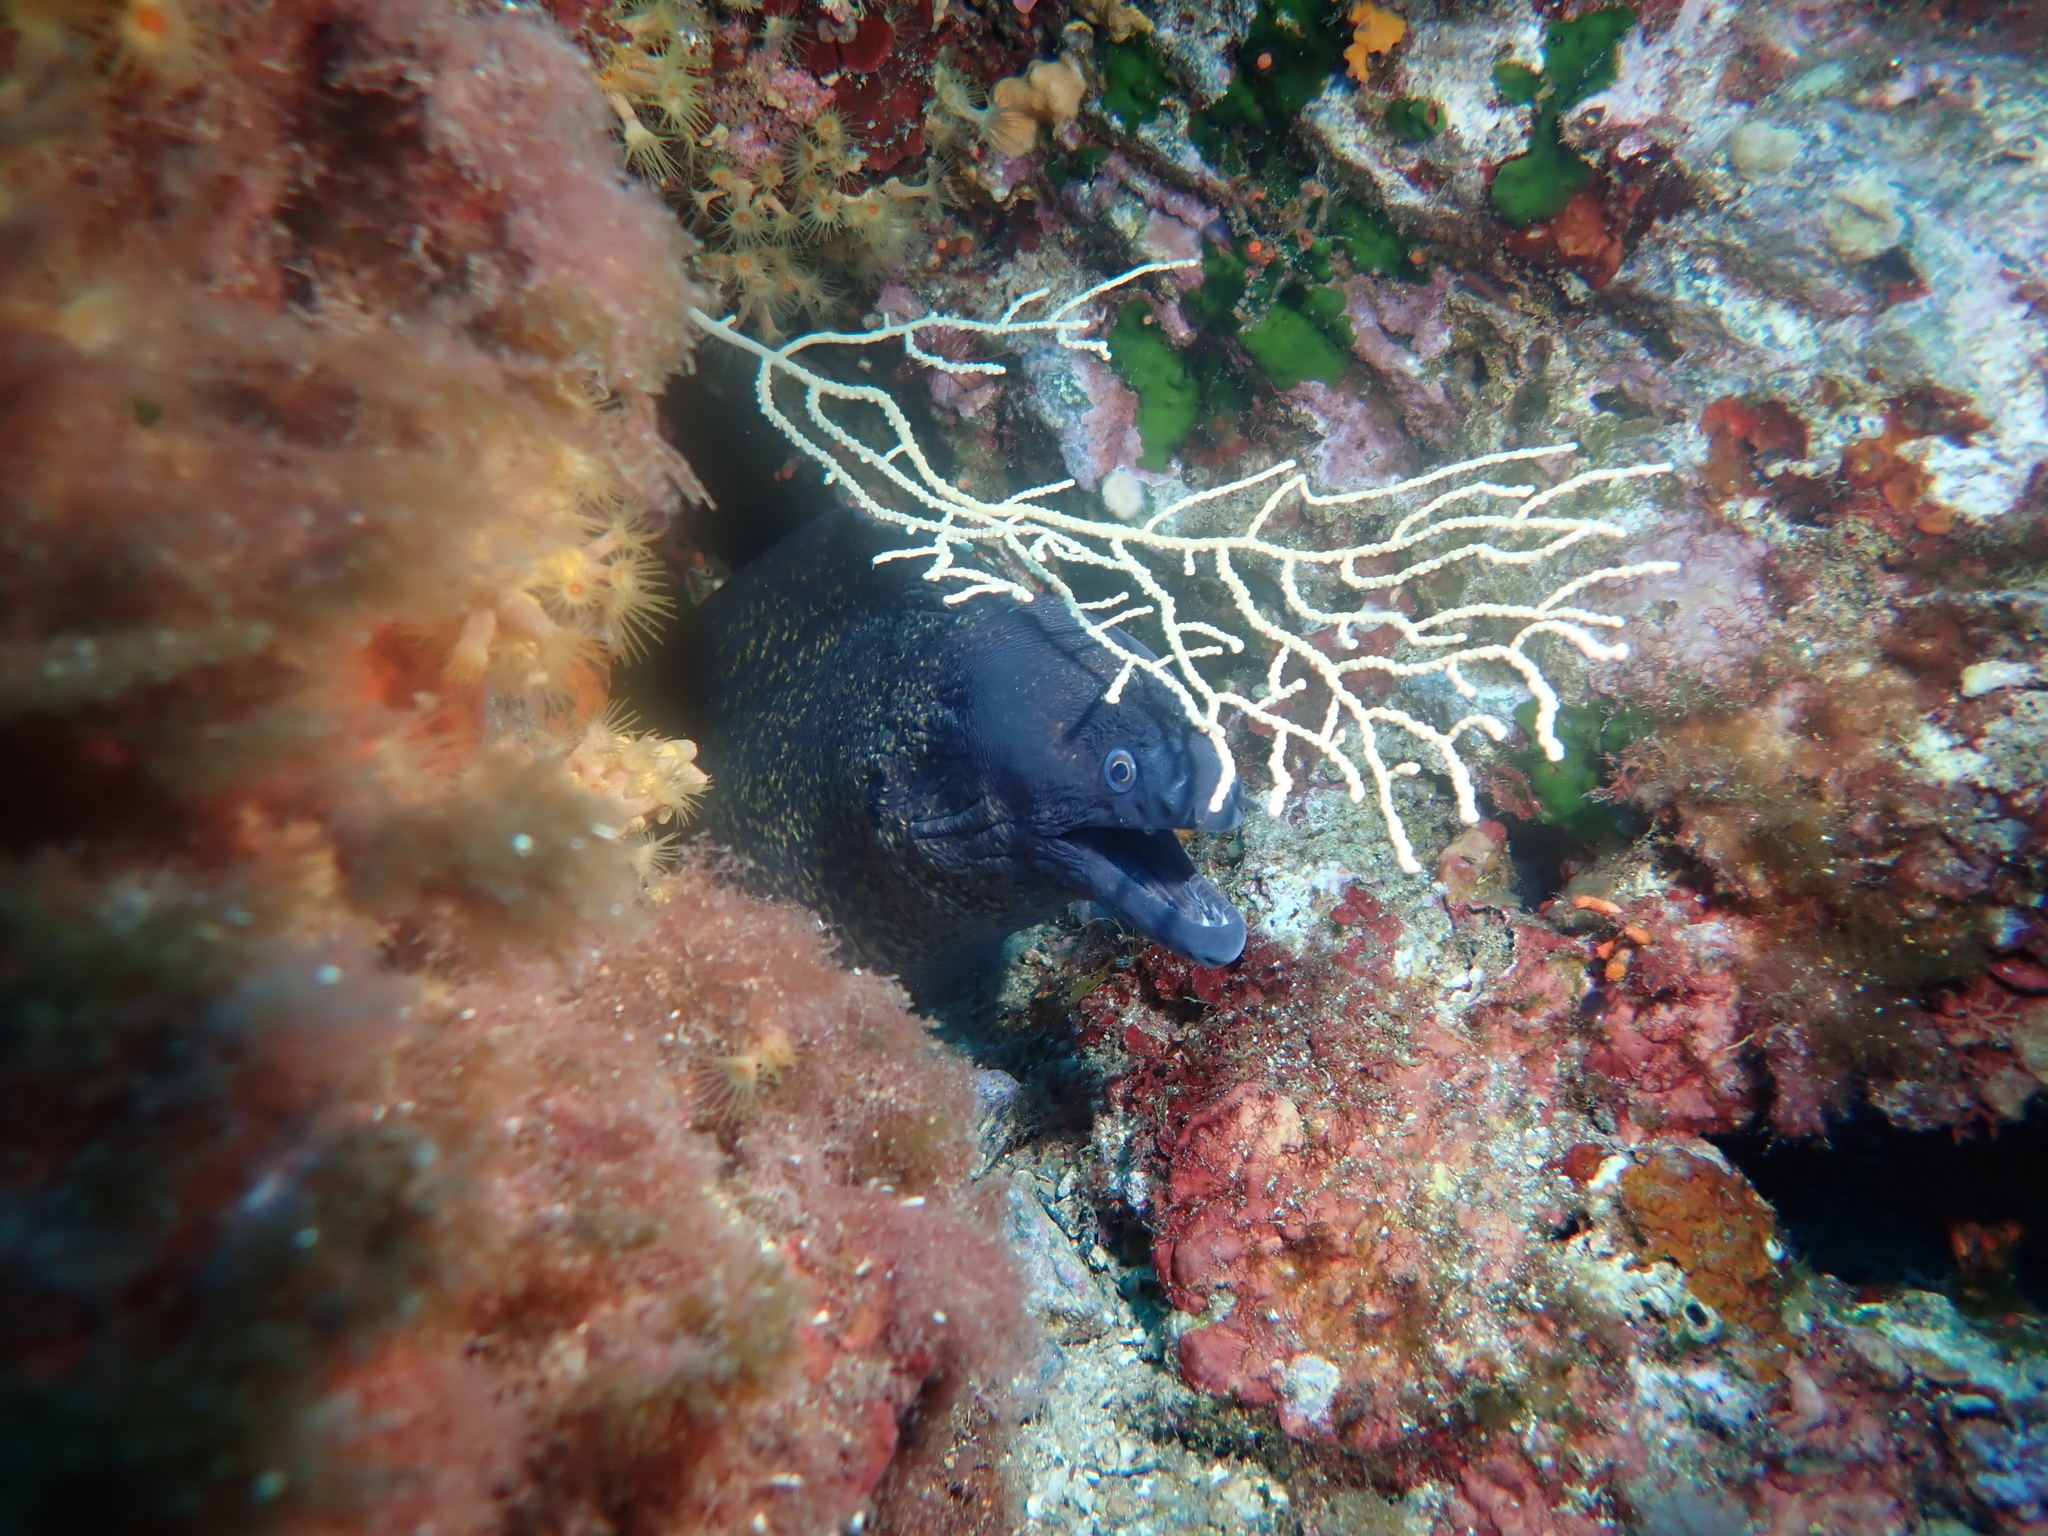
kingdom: Animalia
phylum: Chordata
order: Anguilliformes
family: Muraenidae
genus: Muraena
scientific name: Muraena helena
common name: Mediterranean moray
